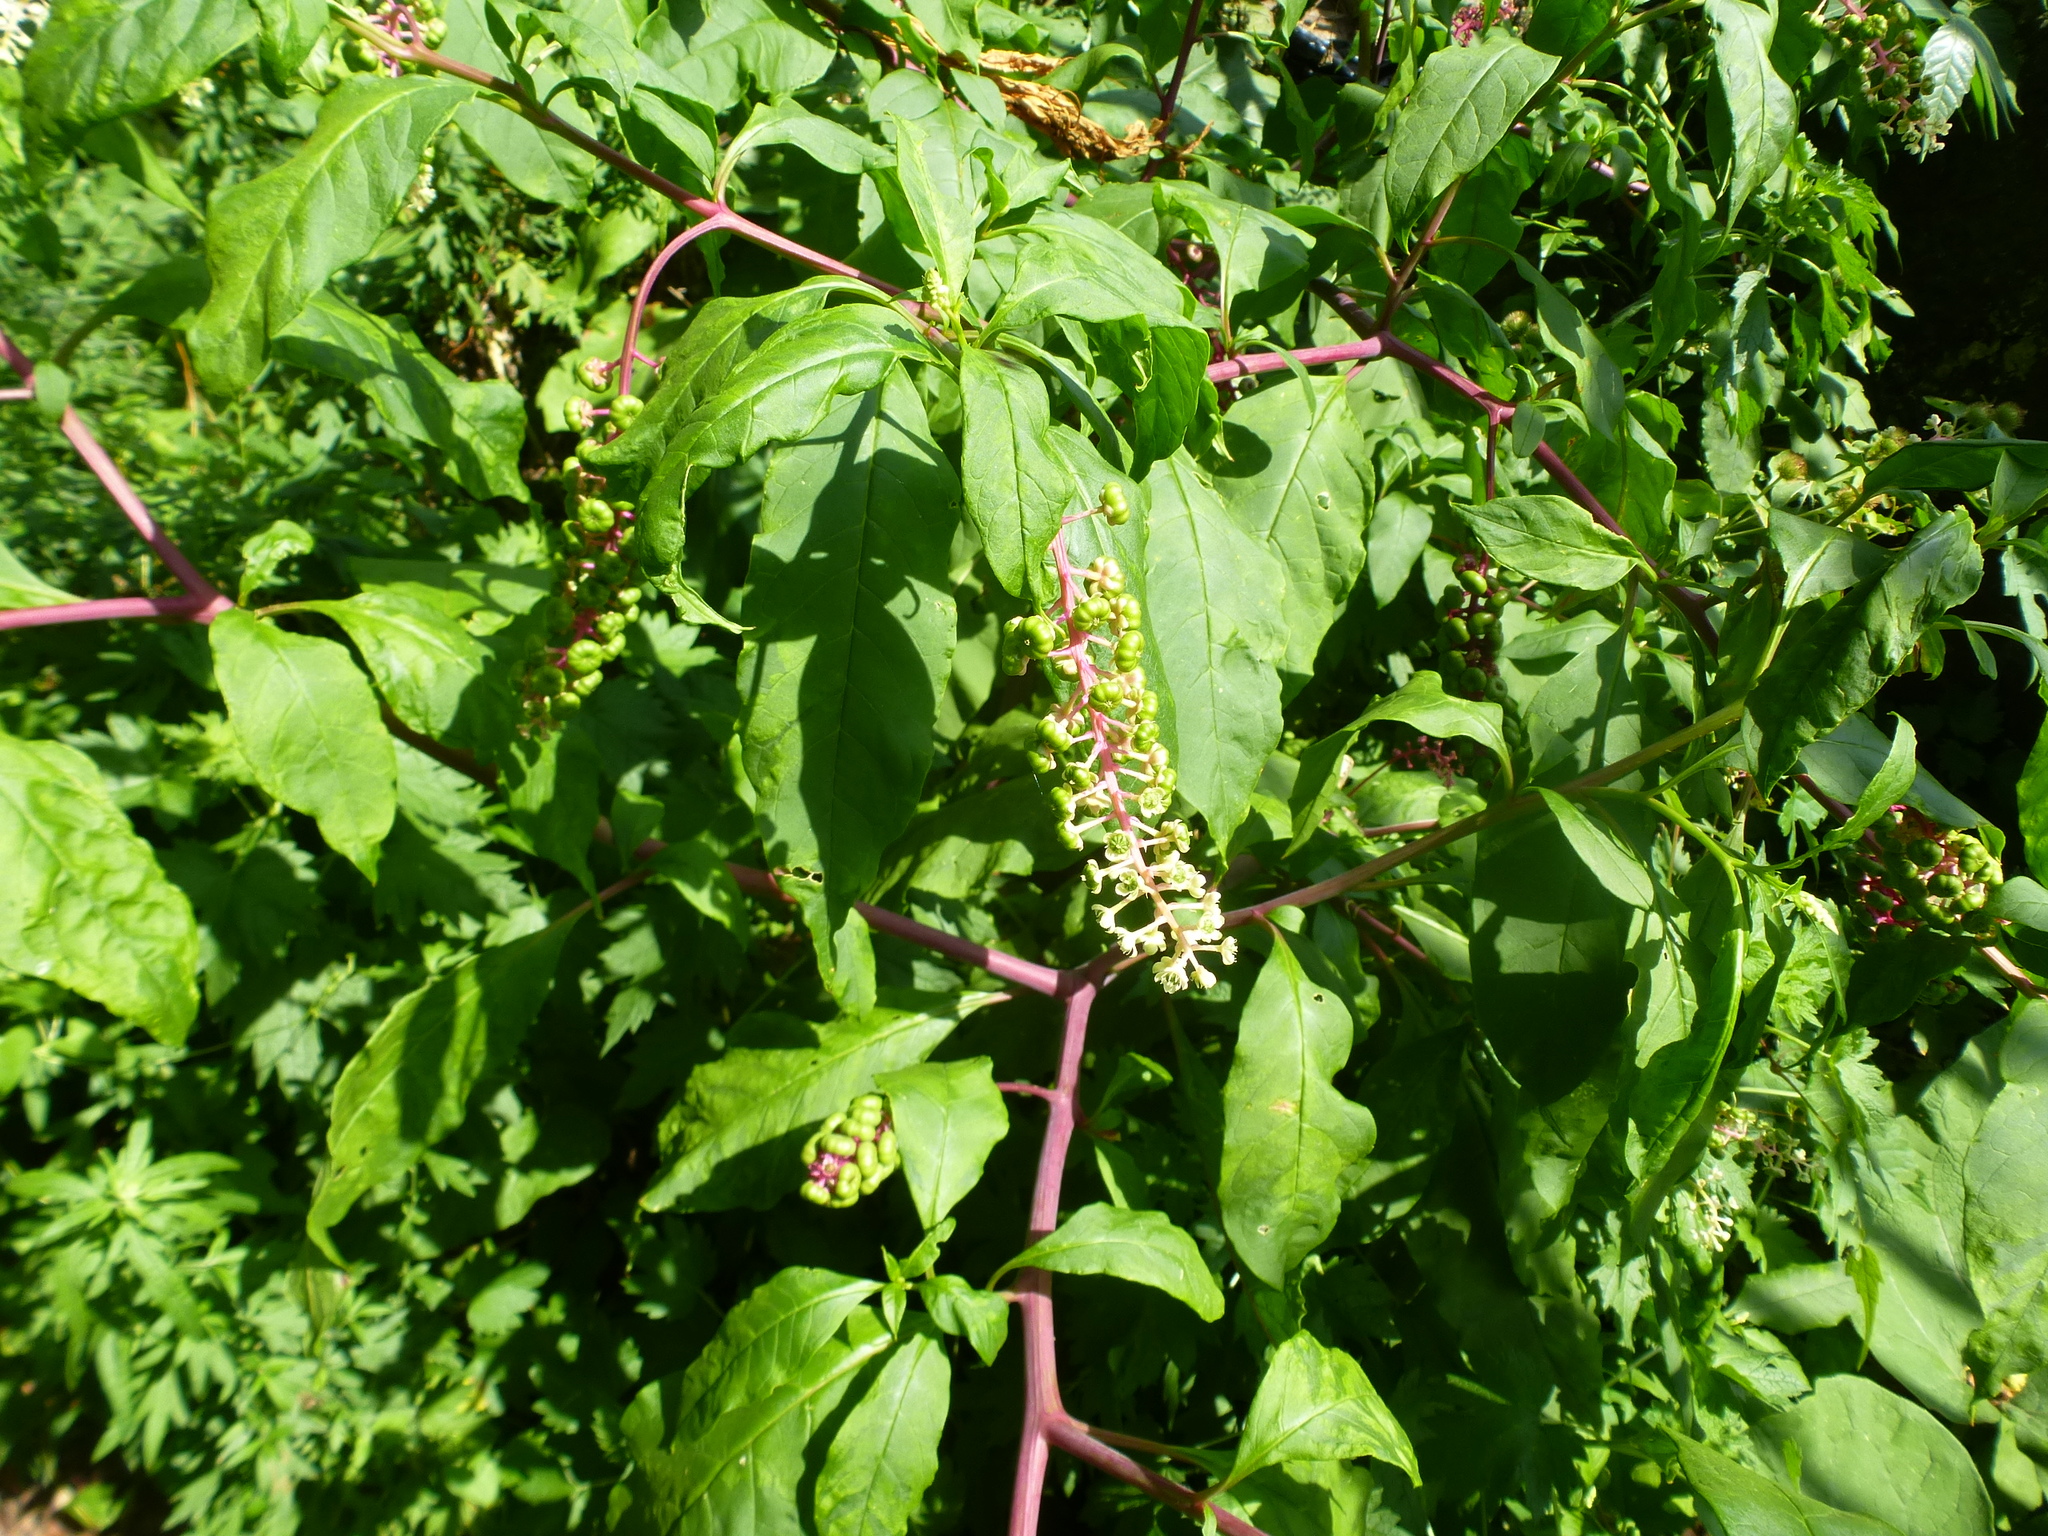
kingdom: Plantae
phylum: Tracheophyta
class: Magnoliopsida
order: Caryophyllales
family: Phytolaccaceae
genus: Phytolacca
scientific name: Phytolacca americana
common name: American pokeweed
